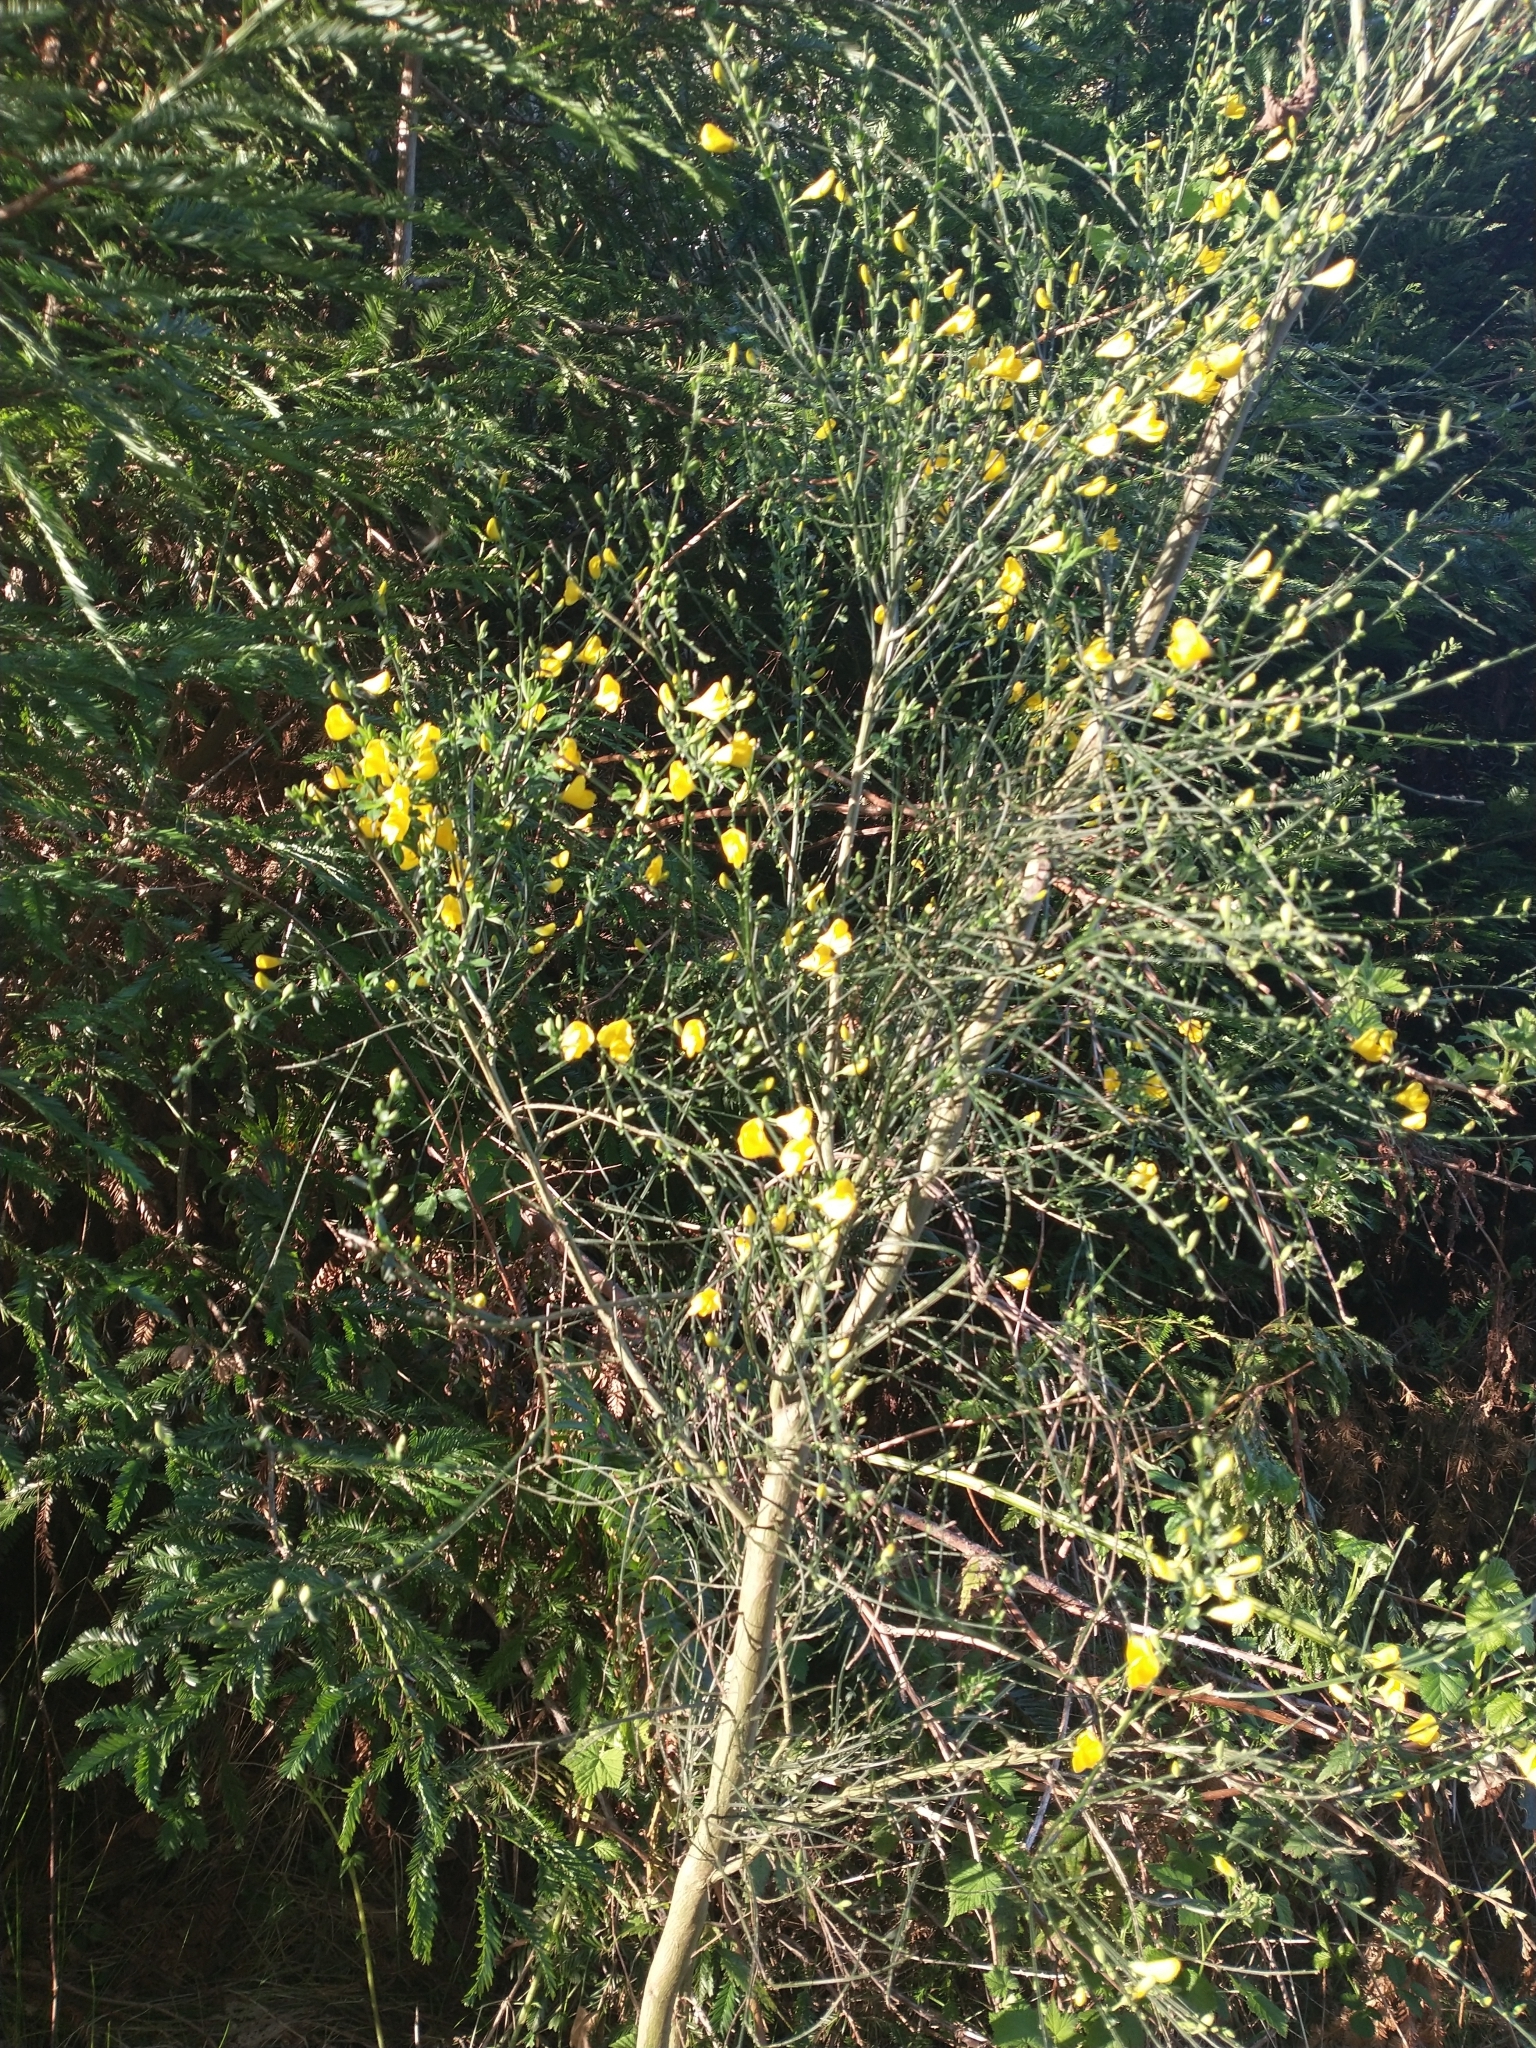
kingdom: Plantae
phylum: Tracheophyta
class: Magnoliopsida
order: Fabales
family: Fabaceae
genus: Cytisus
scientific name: Cytisus scoparius
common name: Scotch broom
